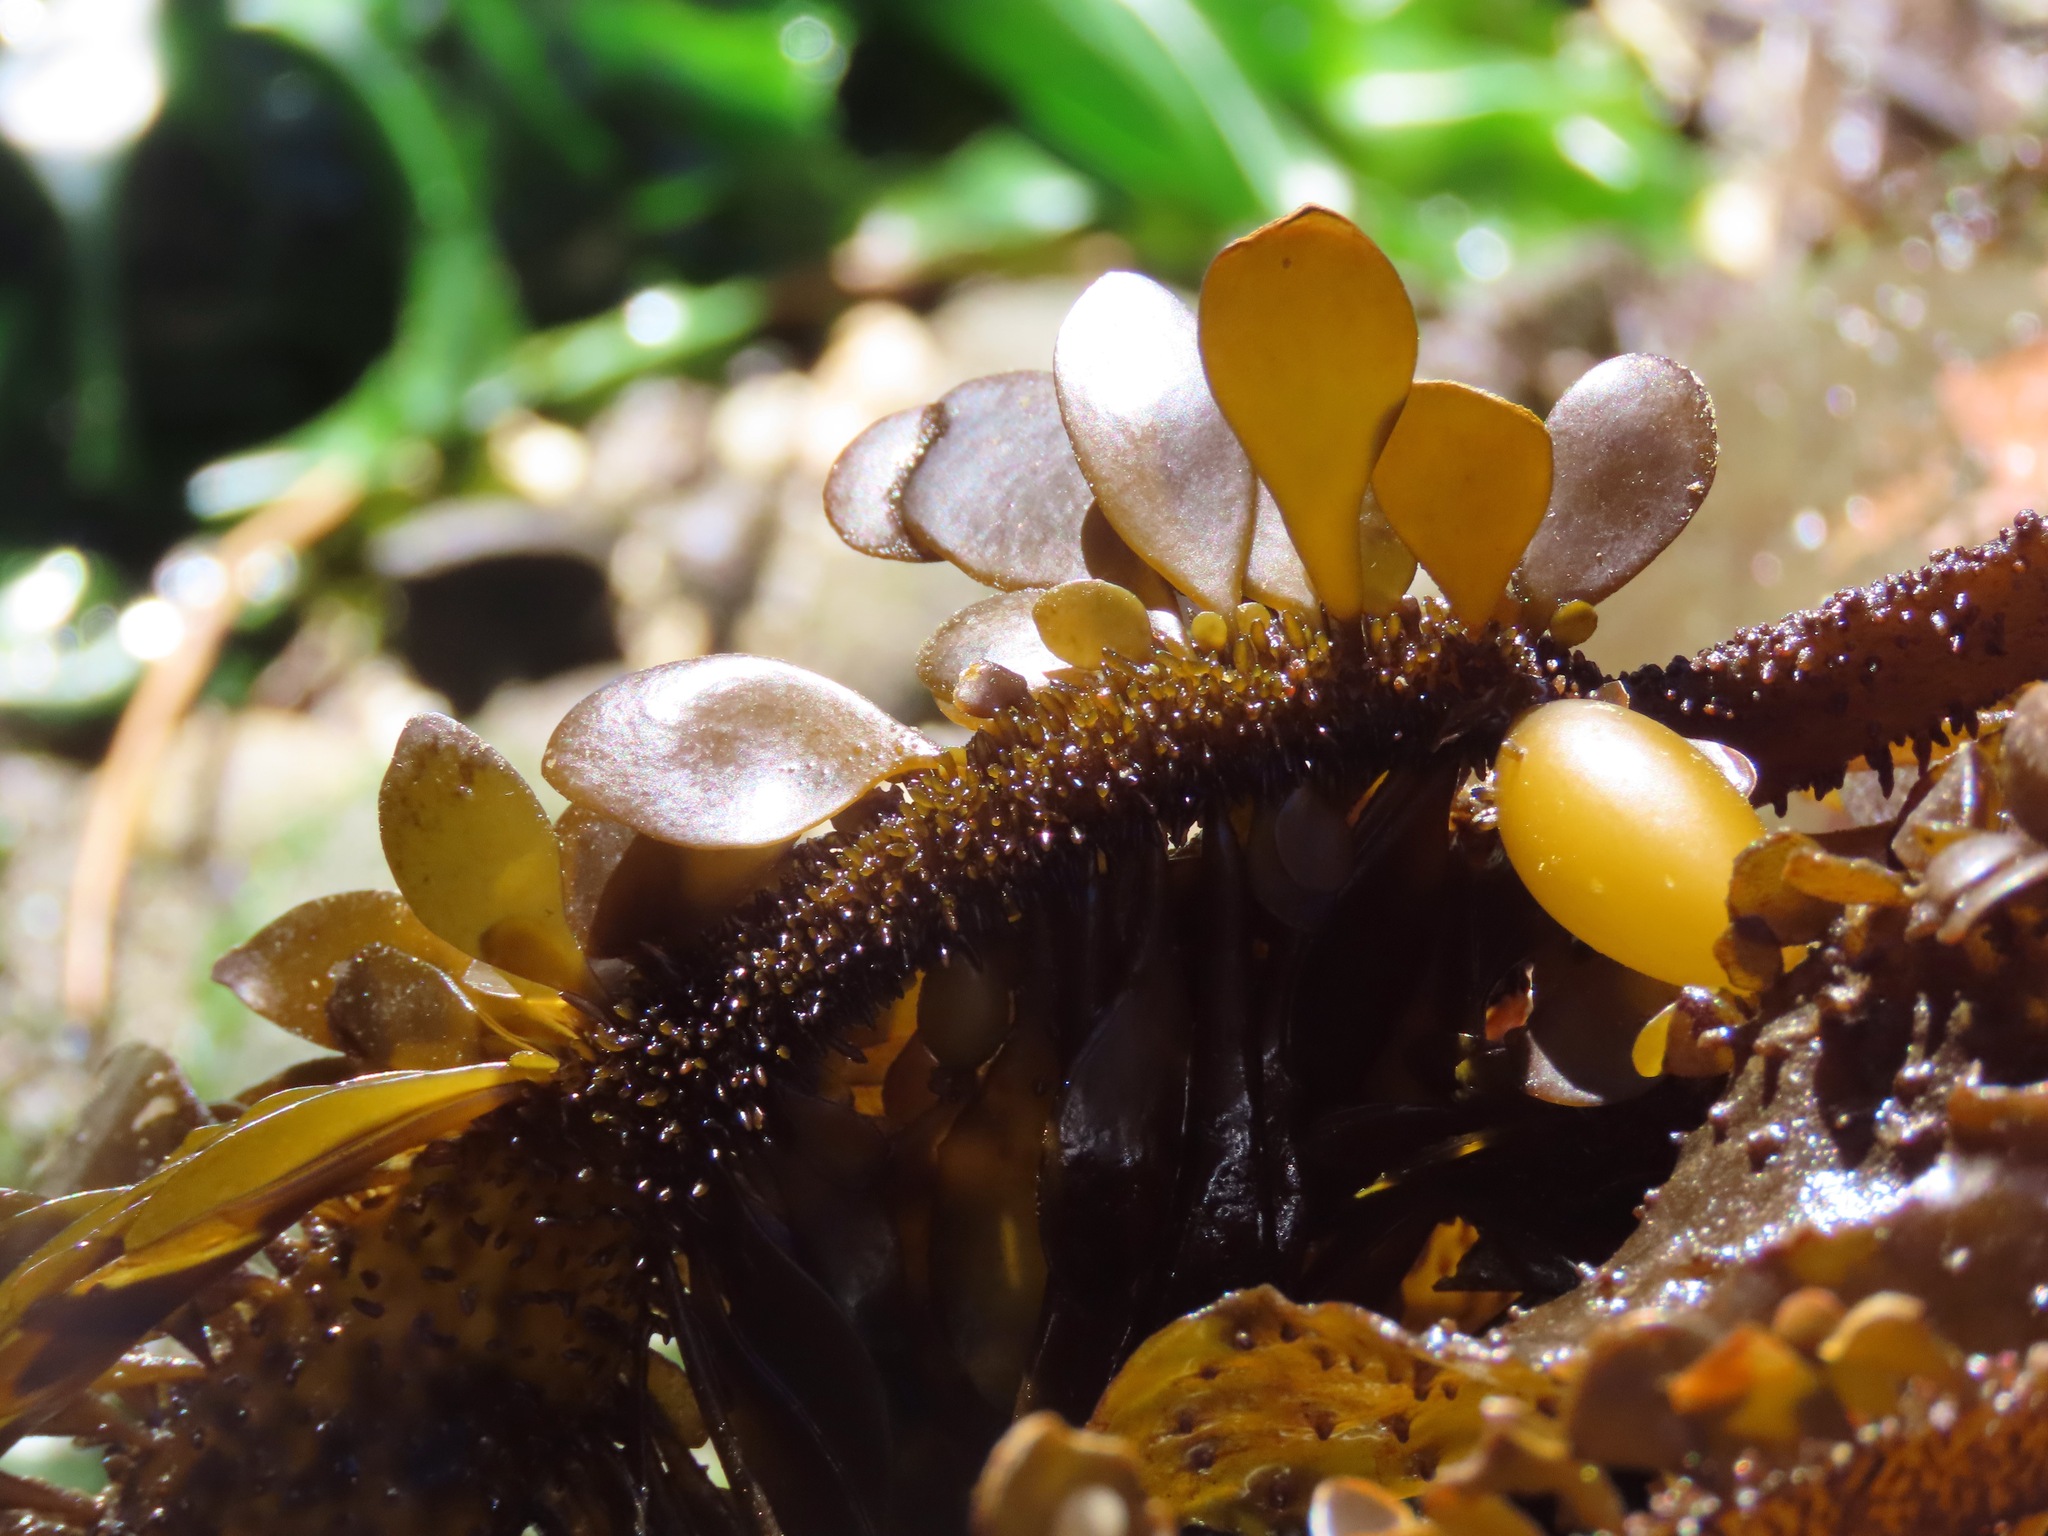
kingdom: Chromista
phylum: Ochrophyta
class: Phaeophyceae
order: Laminariales
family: Lessoniaceae
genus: Egregia
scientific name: Egregia menziesii
